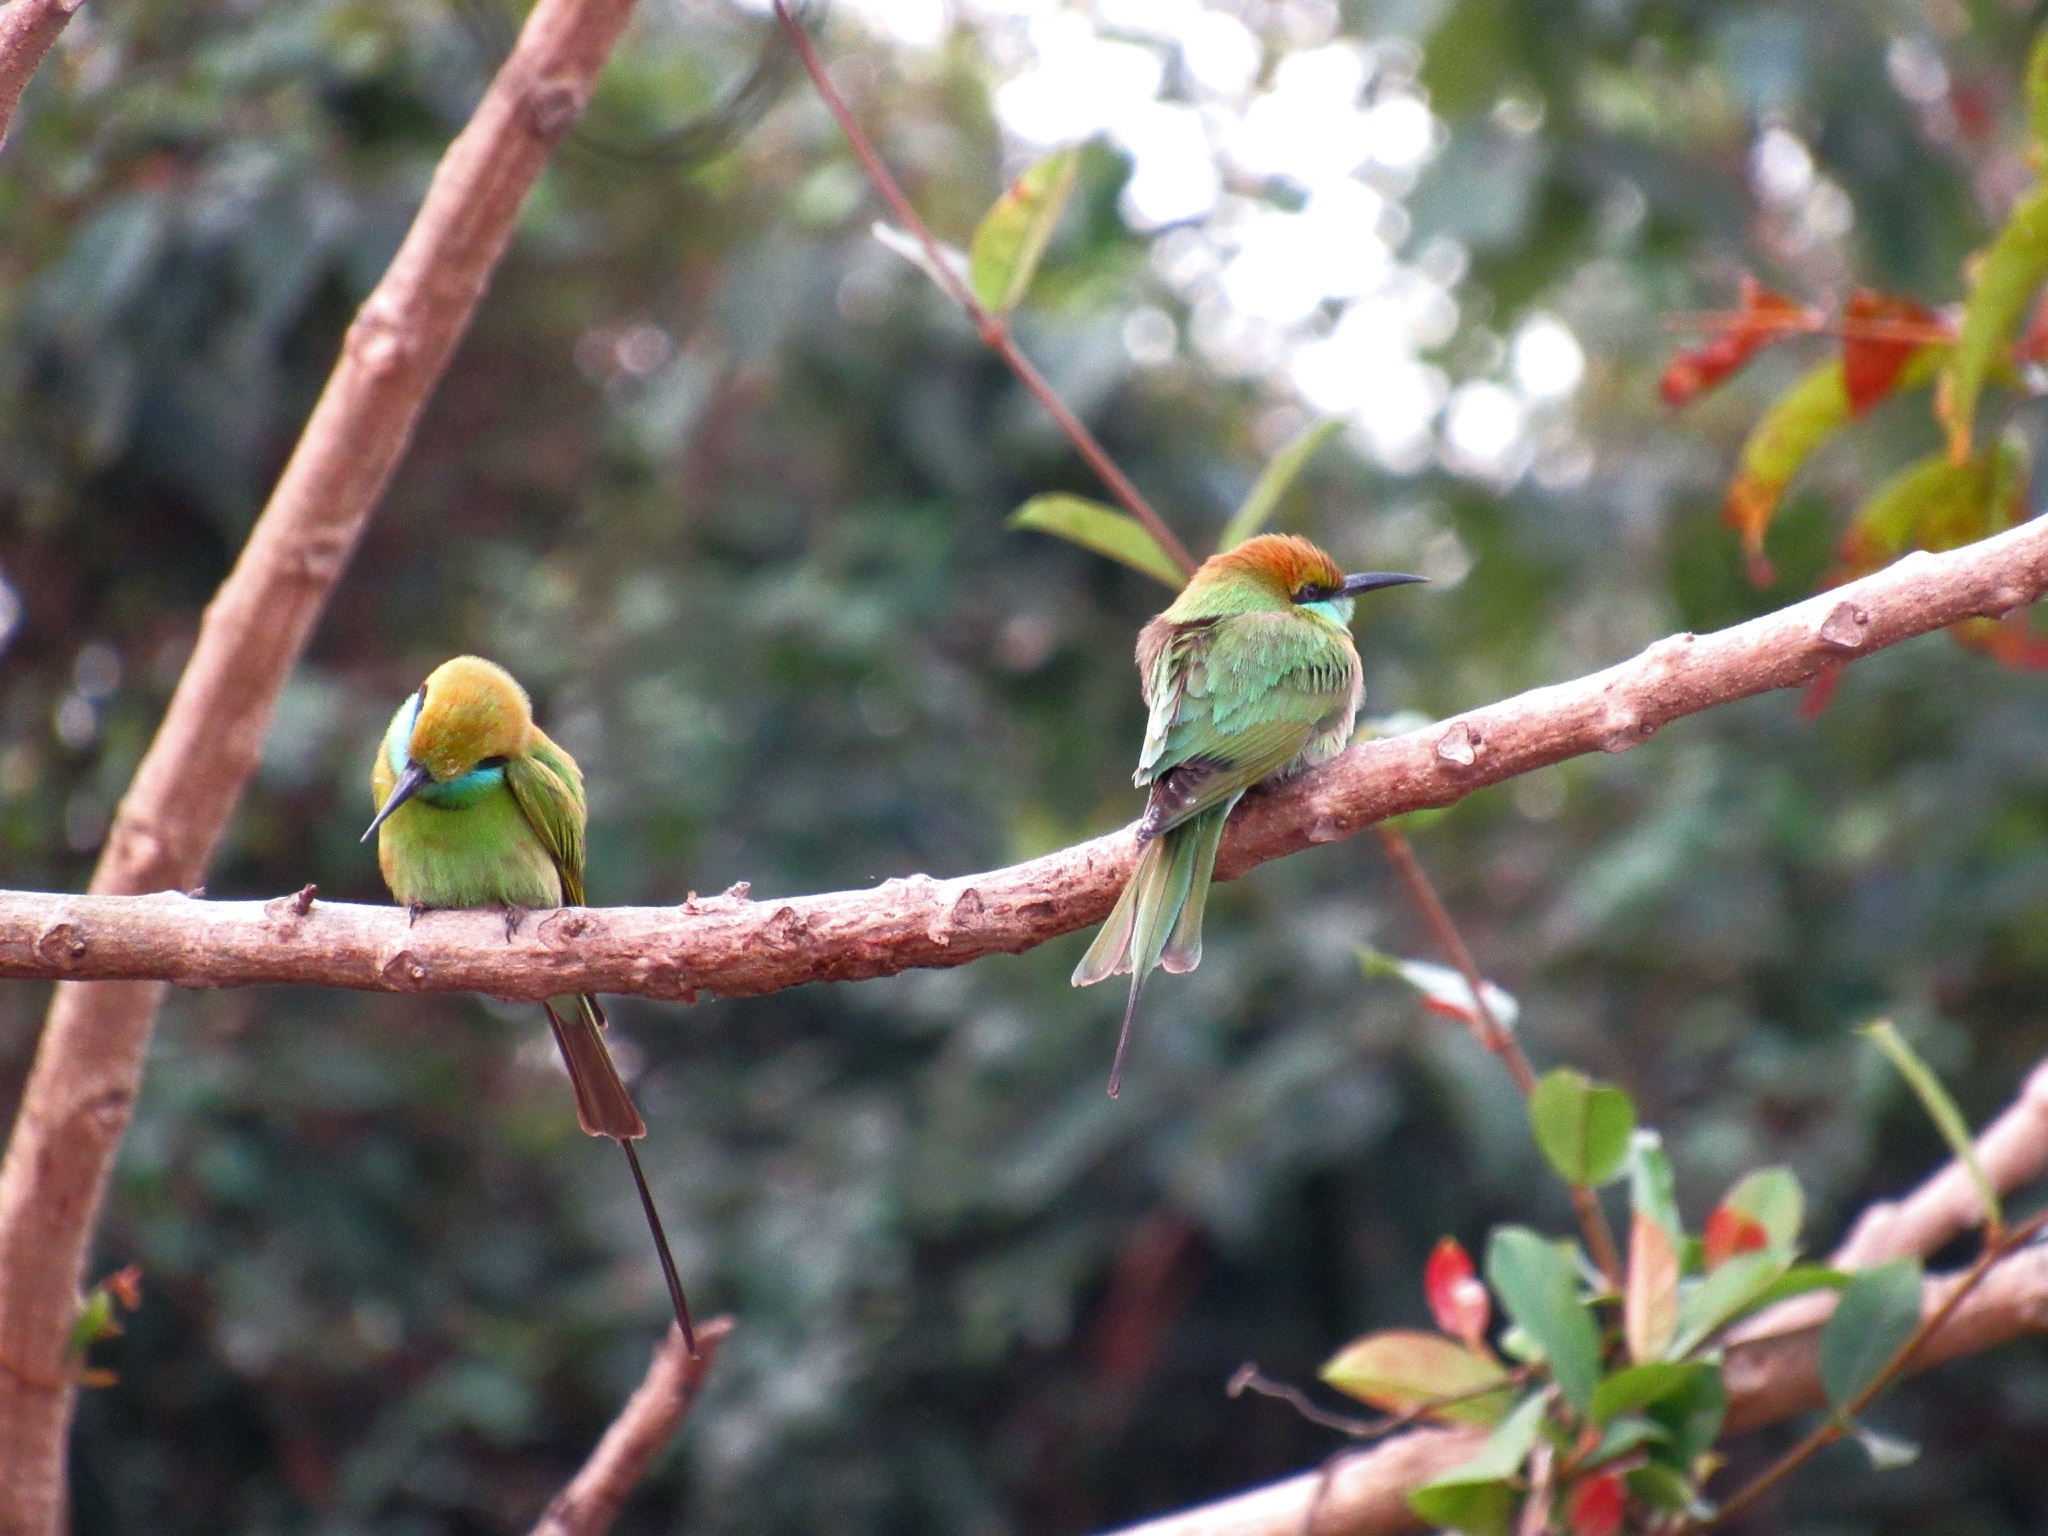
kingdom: Animalia
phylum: Chordata
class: Aves
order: Coraciiformes
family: Meropidae
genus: Merops
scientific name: Merops orientalis
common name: Green bee-eater
